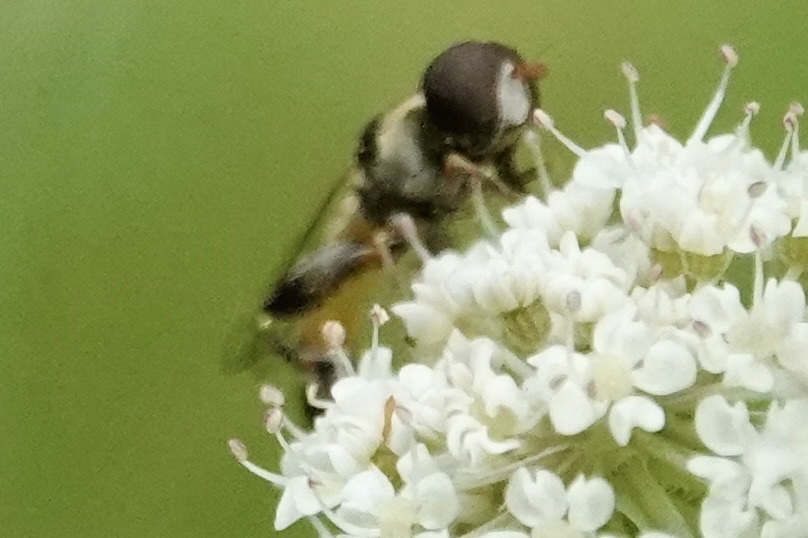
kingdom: Animalia
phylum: Arthropoda
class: Insecta
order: Diptera
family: Syrphidae
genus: Syritta
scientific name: Syritta pipiens
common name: Hover fly
